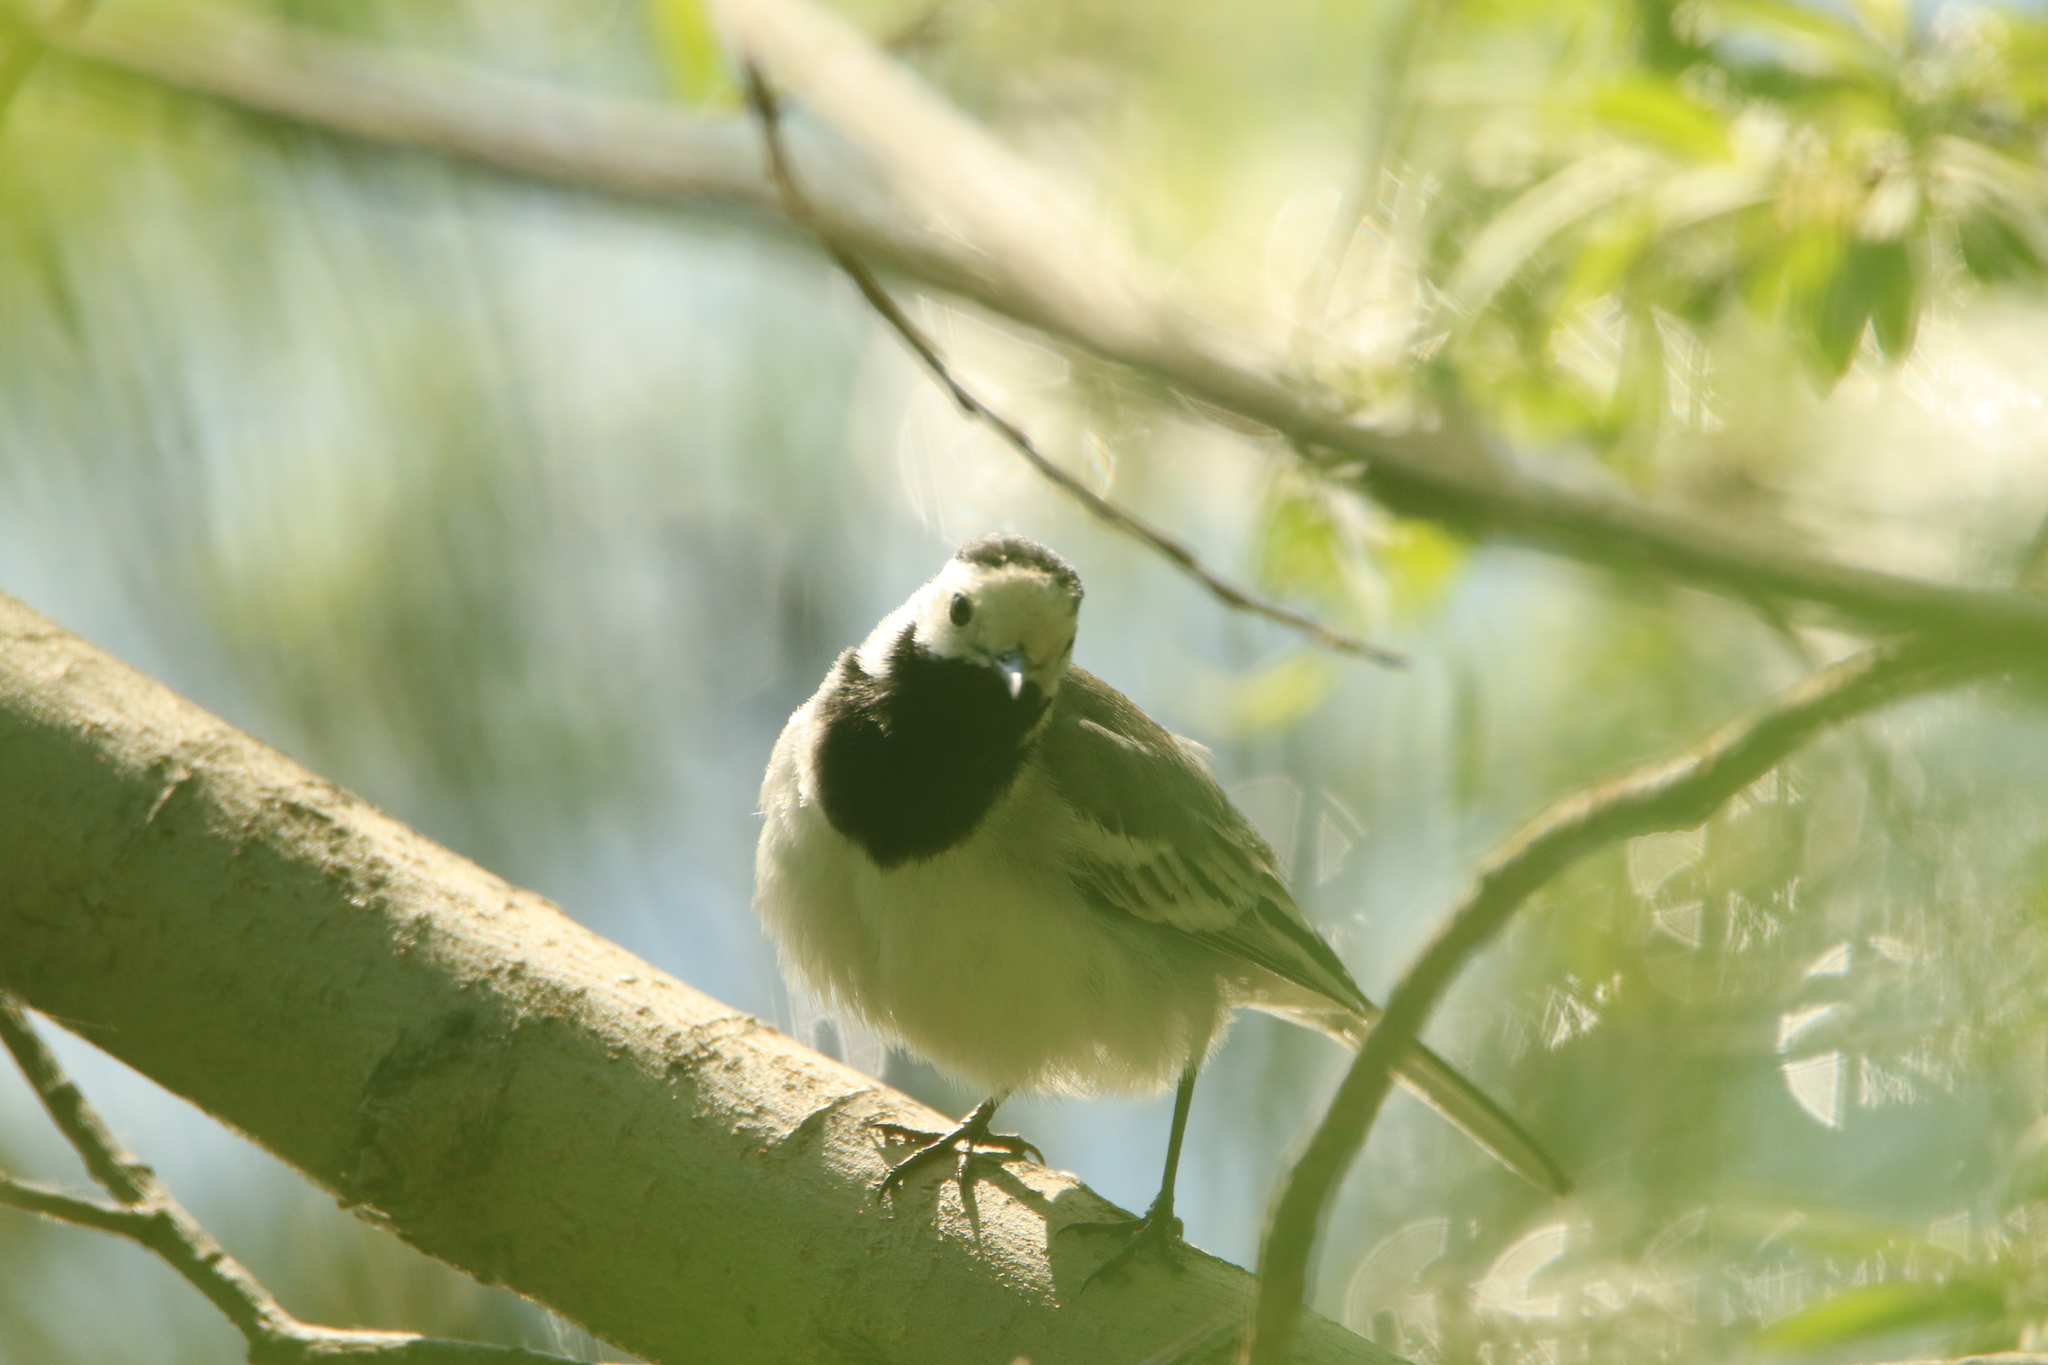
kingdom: Animalia
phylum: Chordata
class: Aves
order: Passeriformes
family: Motacillidae
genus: Motacilla
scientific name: Motacilla alba
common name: White wagtail
